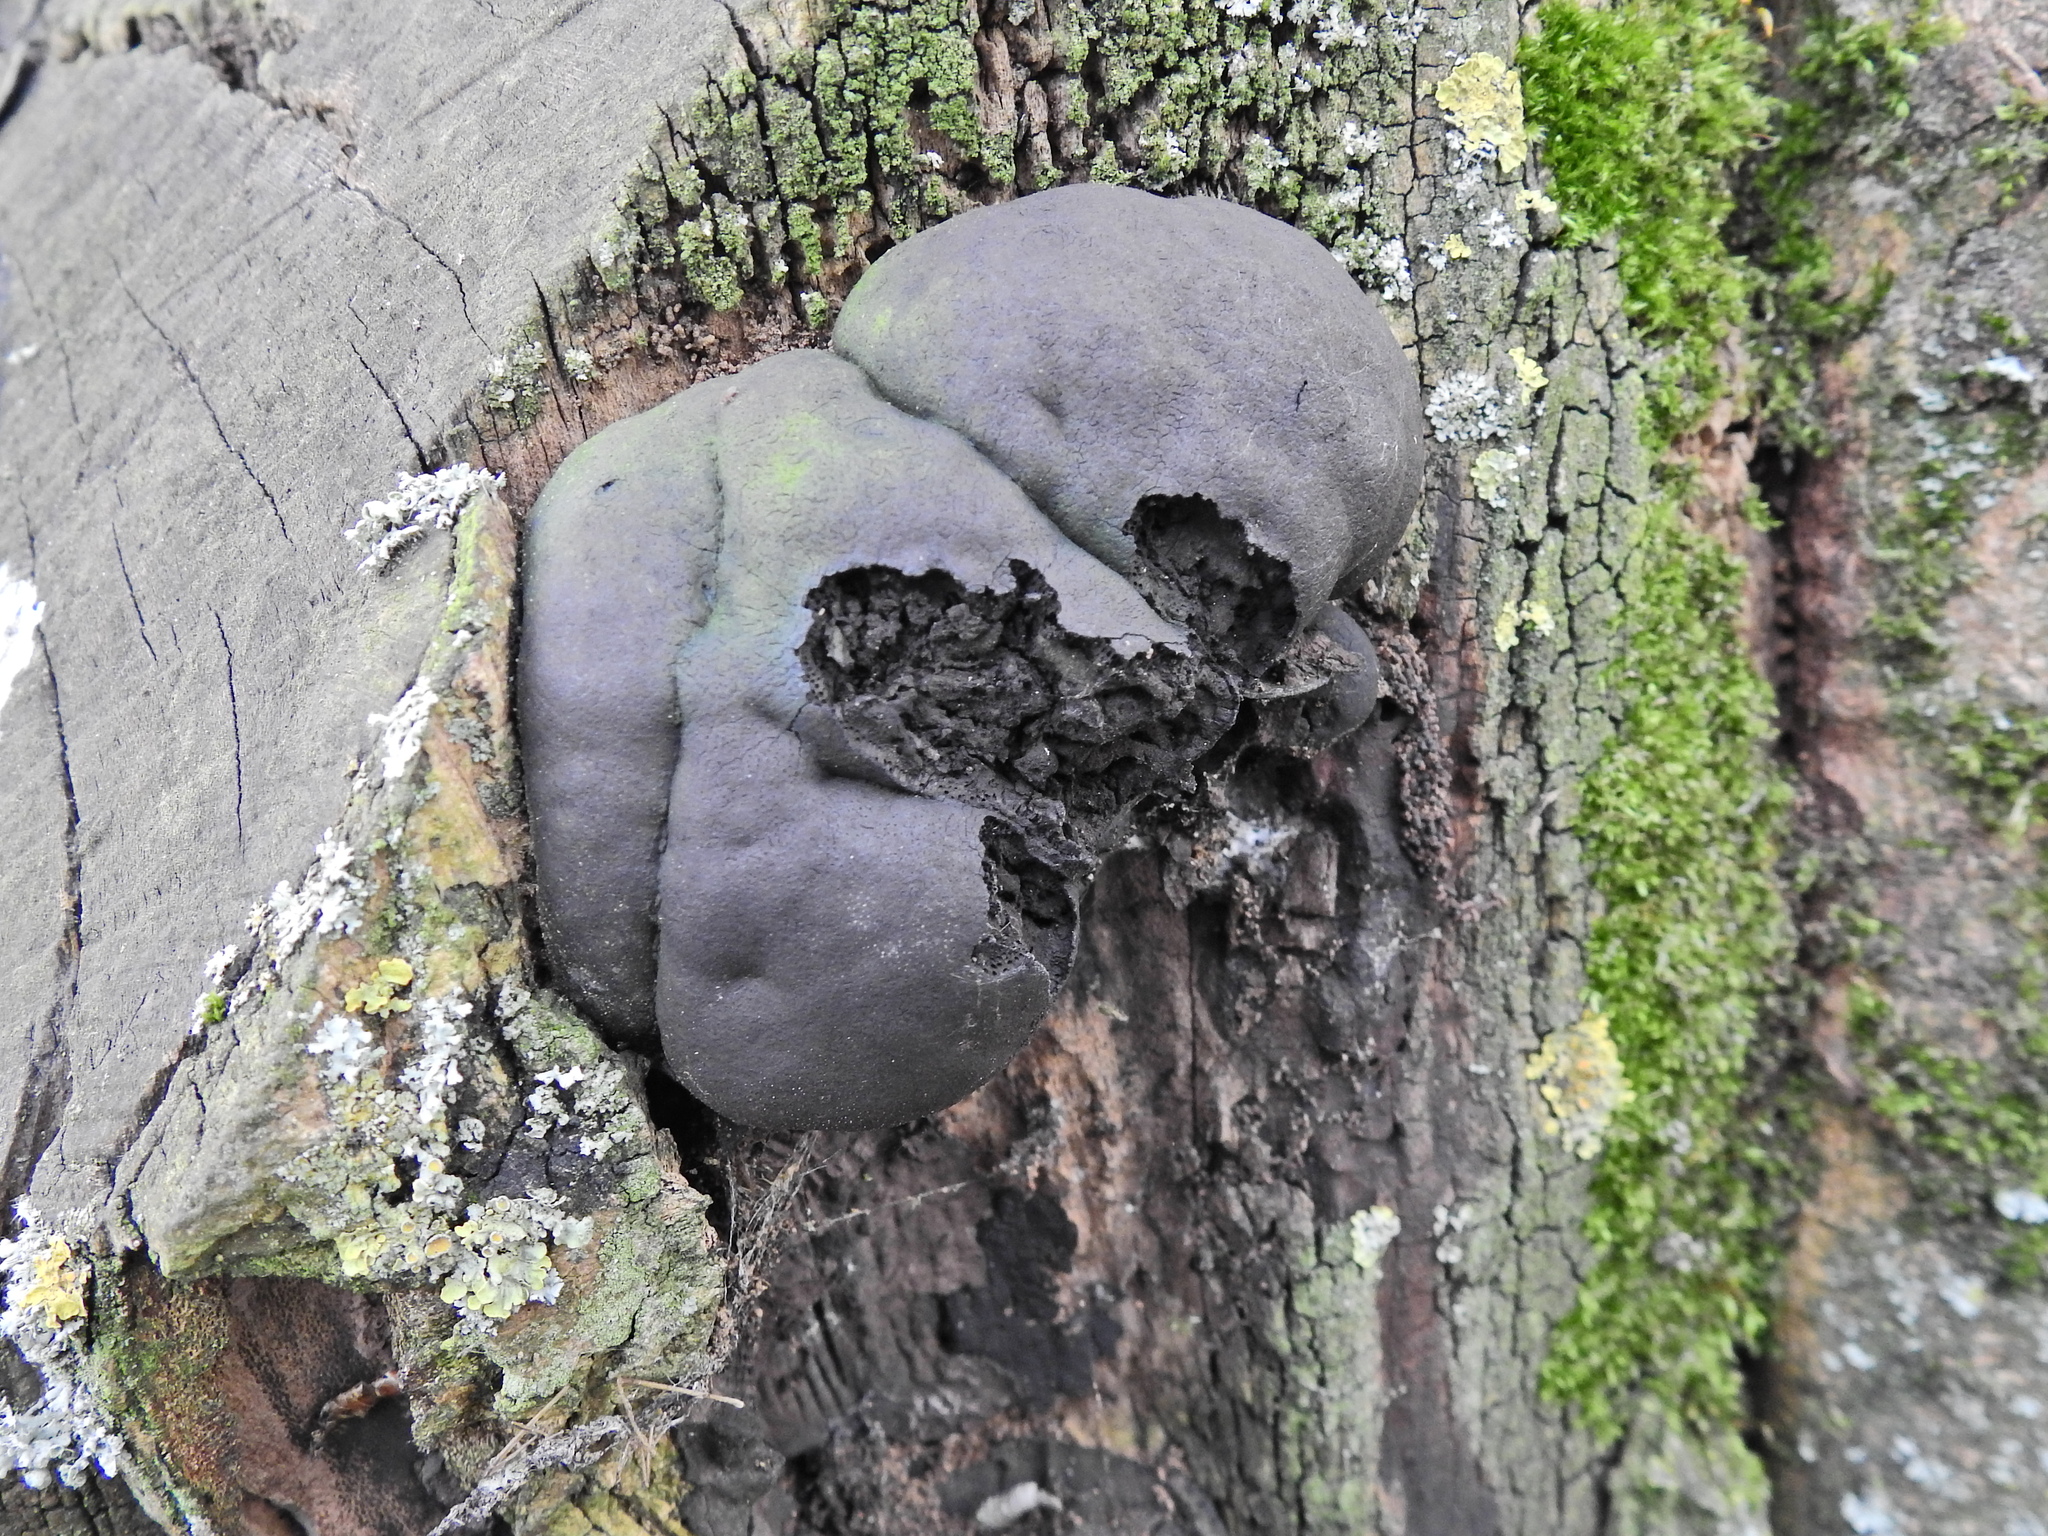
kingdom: Fungi
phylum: Ascomycota
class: Sordariomycetes
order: Xylariales
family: Hypoxylaceae
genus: Daldinia
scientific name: Daldinia concentrica
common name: Cramp balls
